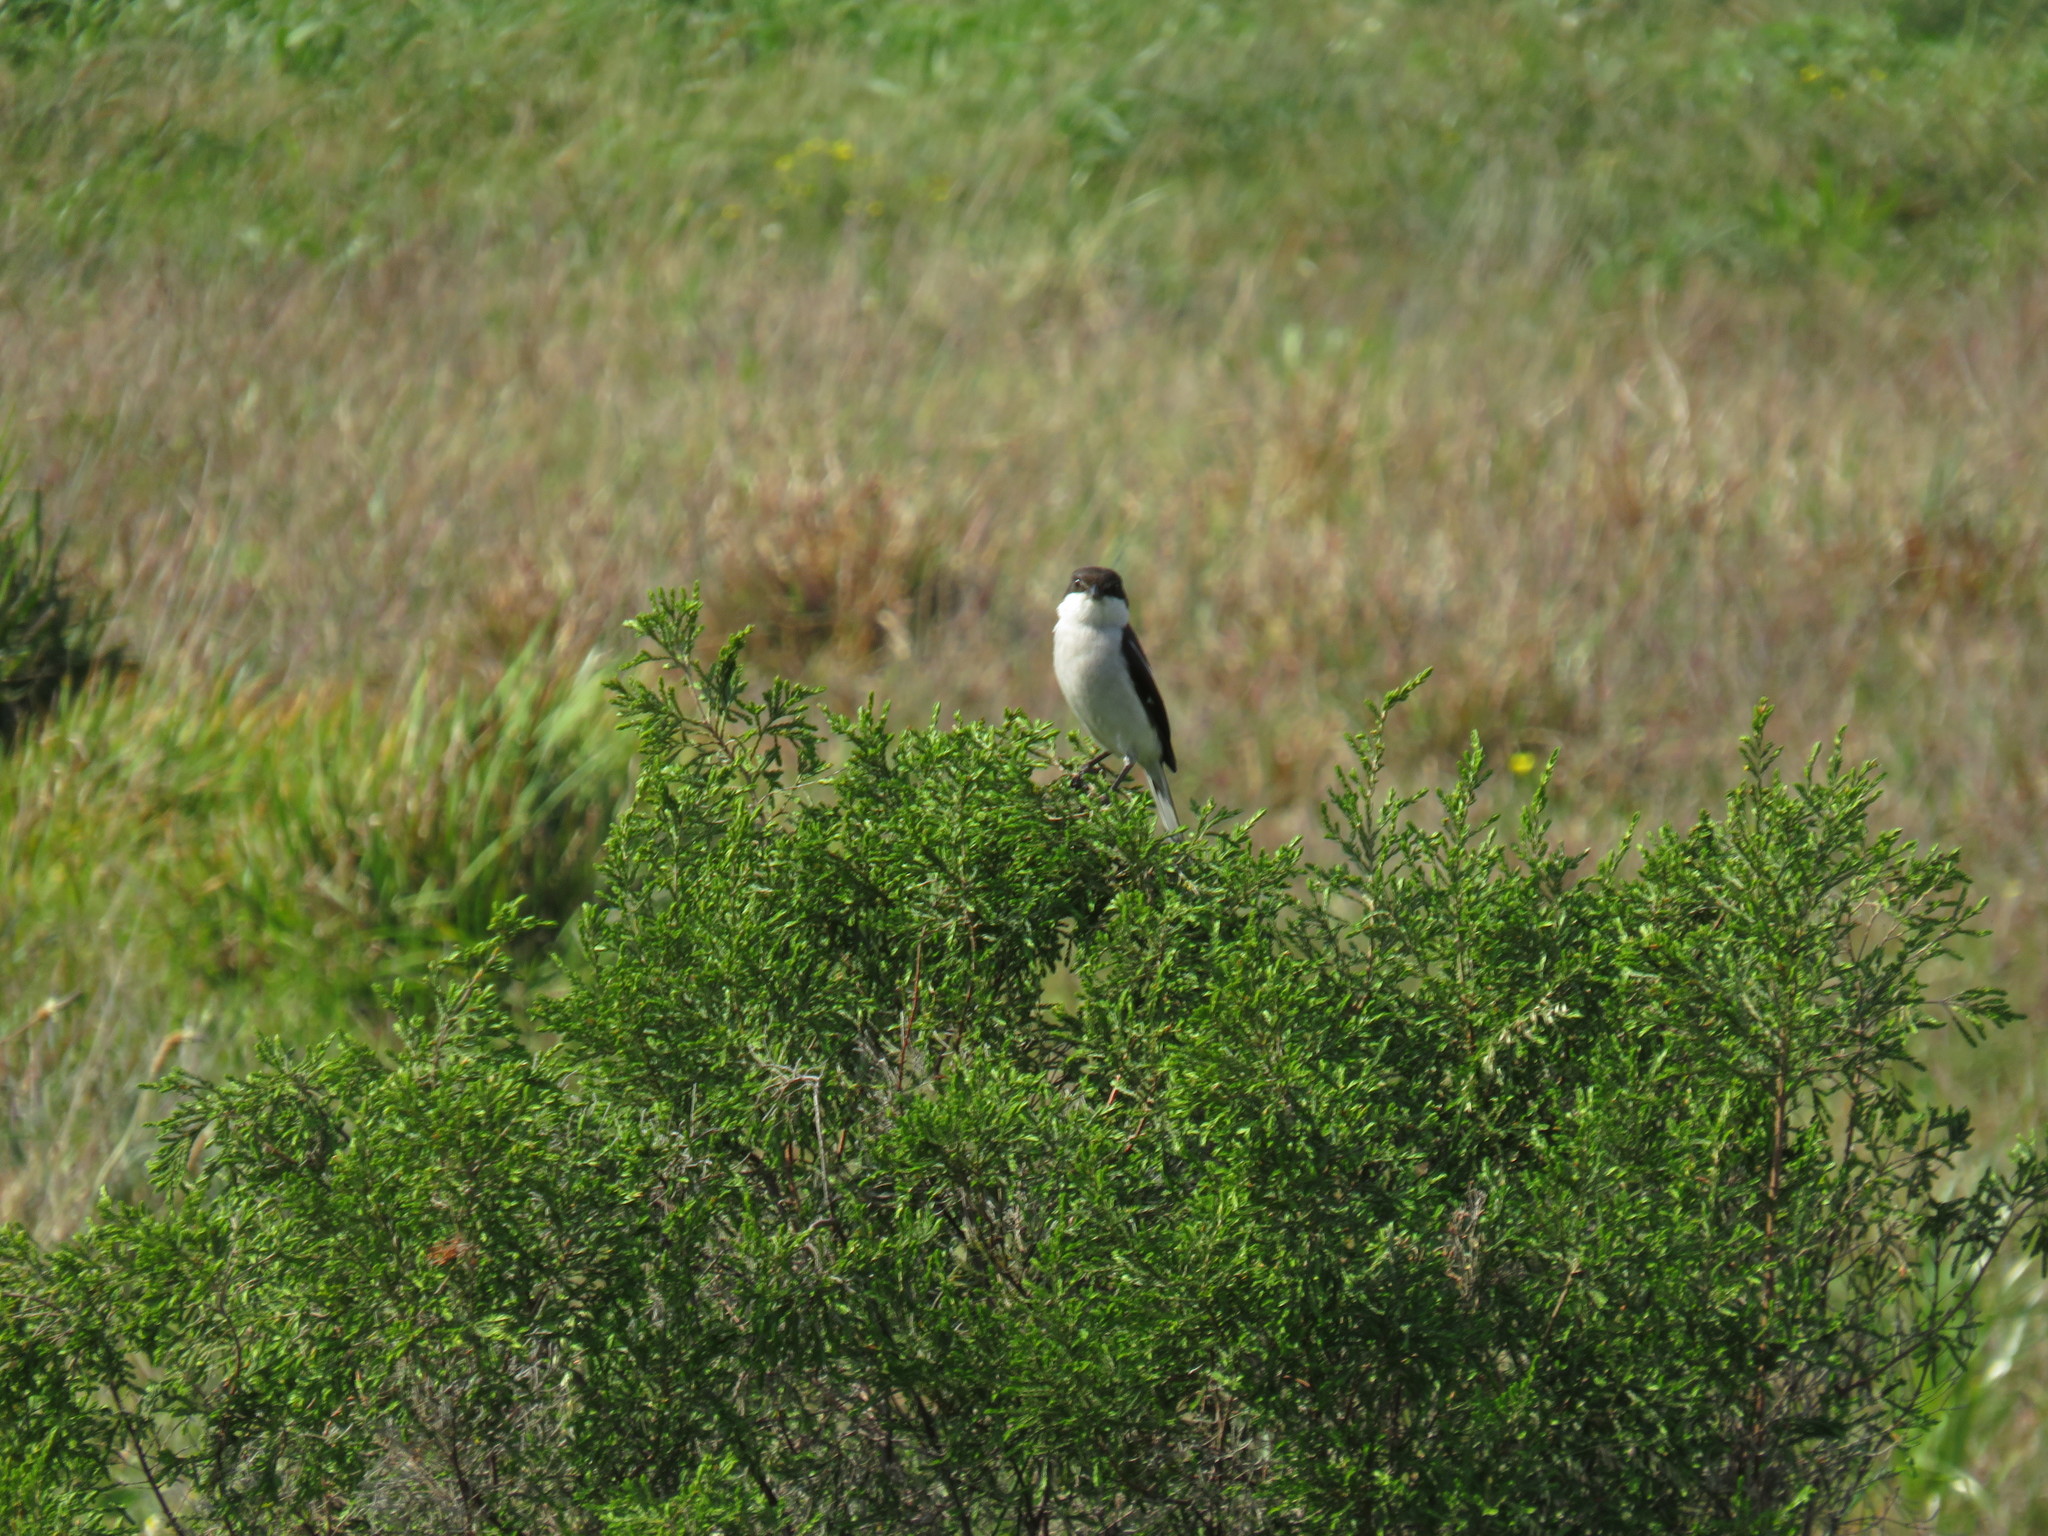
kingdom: Plantae
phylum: Tracheophyta
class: Magnoliopsida
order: Malvales
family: Thymelaeaceae
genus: Passerina
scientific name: Passerina corymbosa
